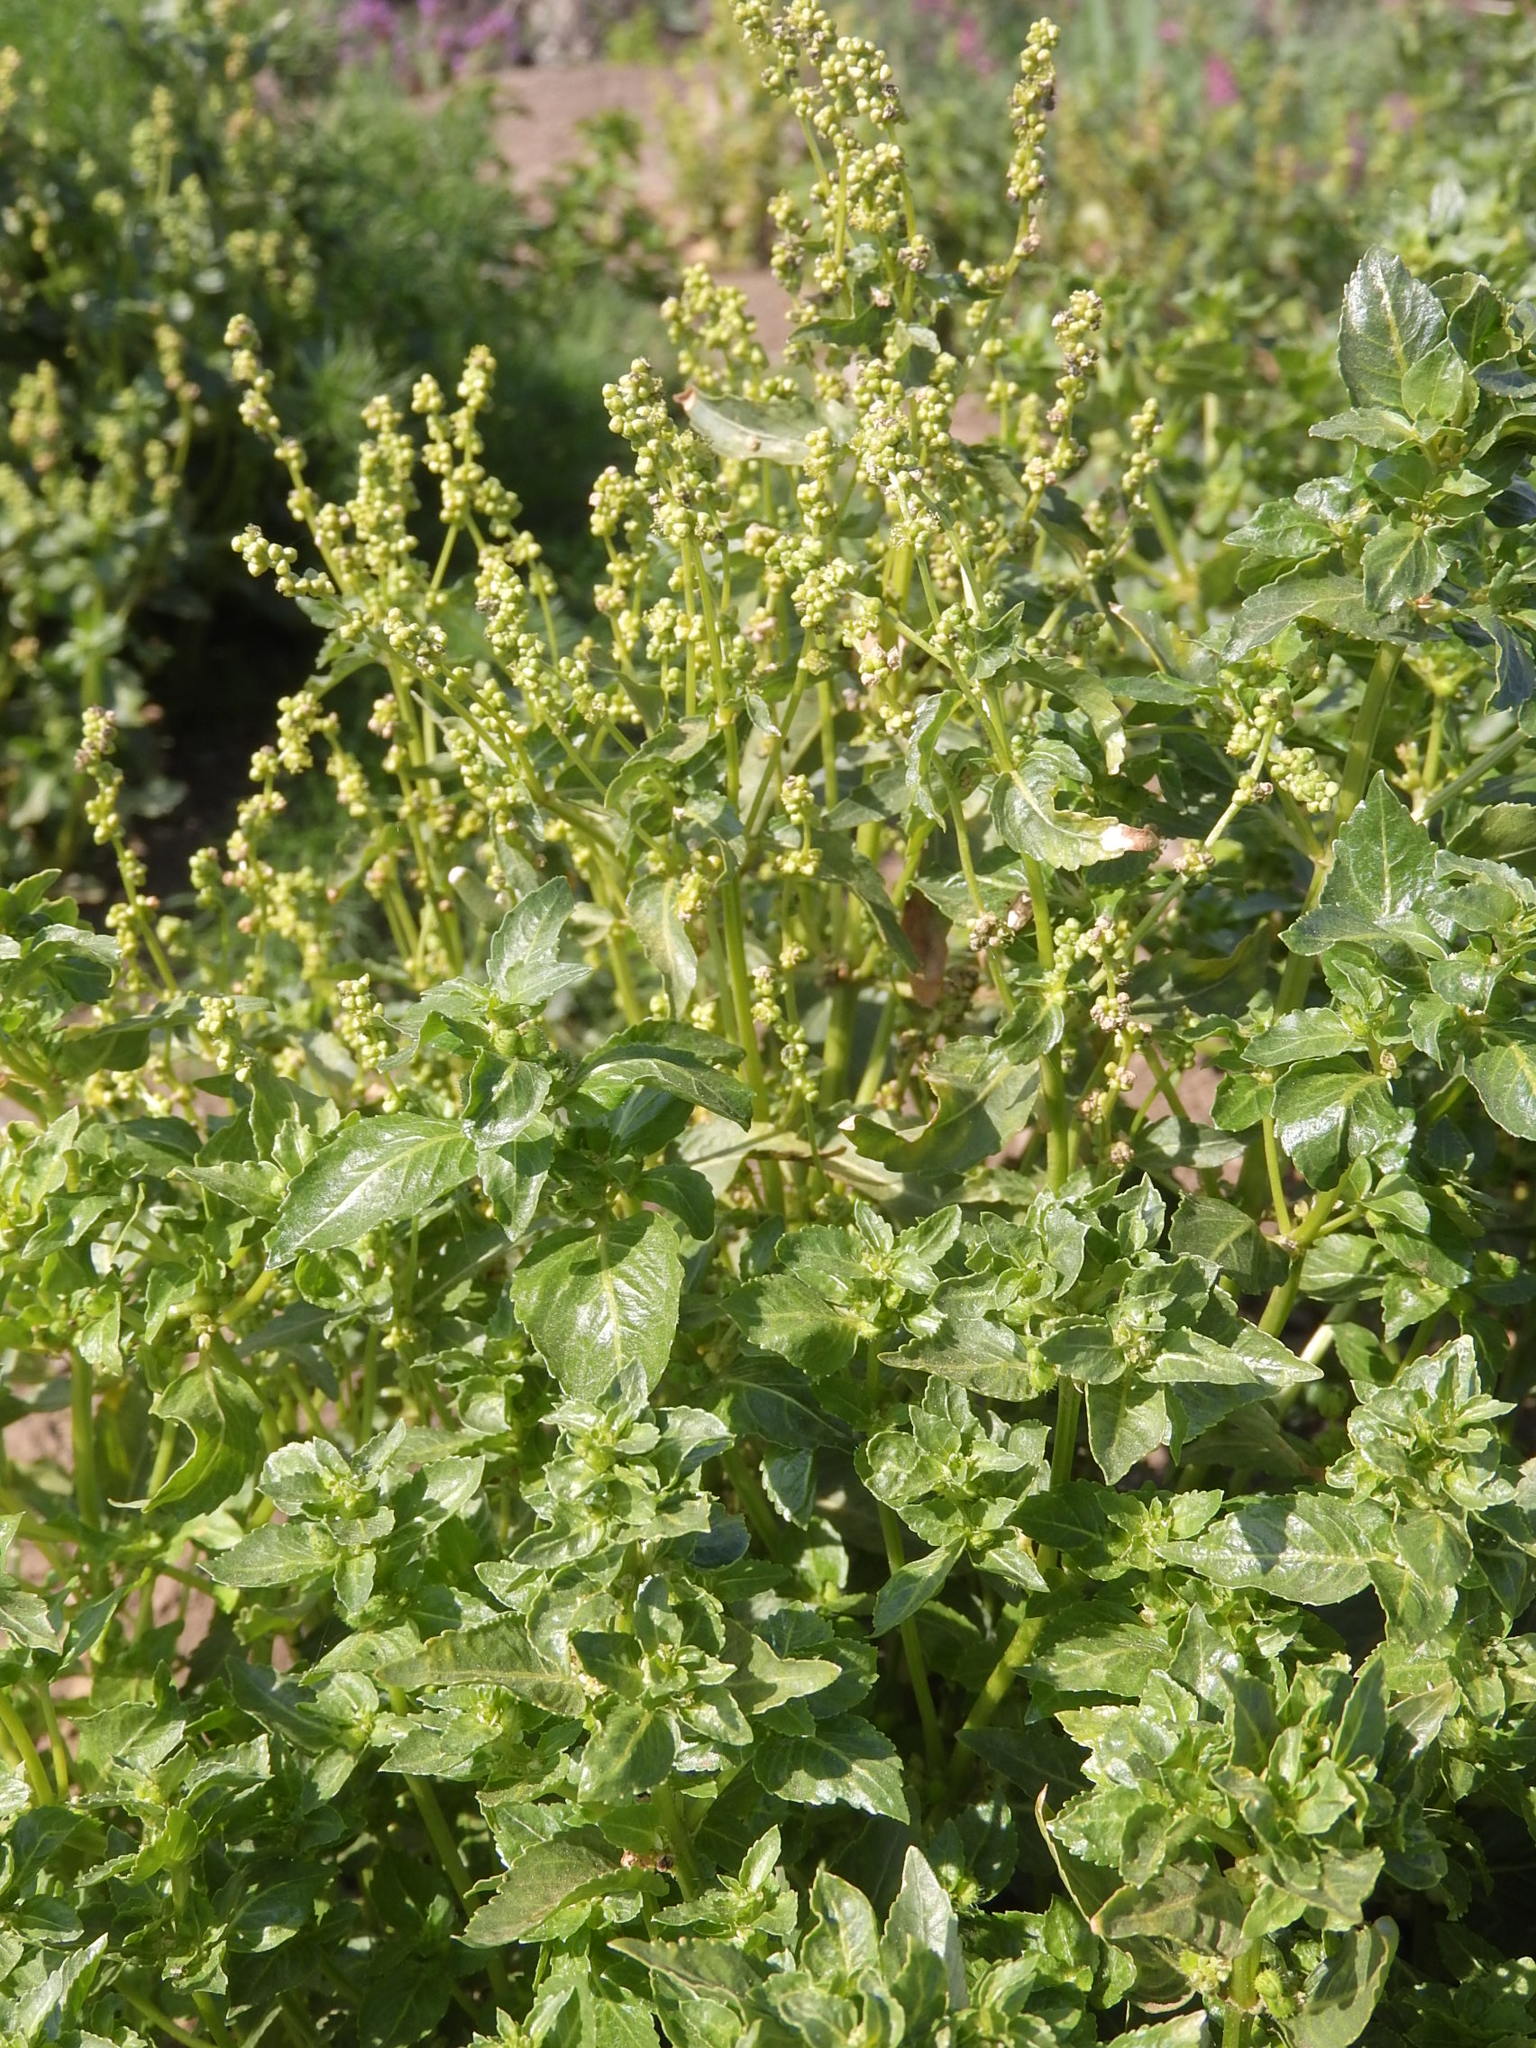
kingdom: Plantae
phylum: Tracheophyta
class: Magnoliopsida
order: Malpighiales
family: Euphorbiaceae
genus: Mercurialis
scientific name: Mercurialis annua
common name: Annual mercury
